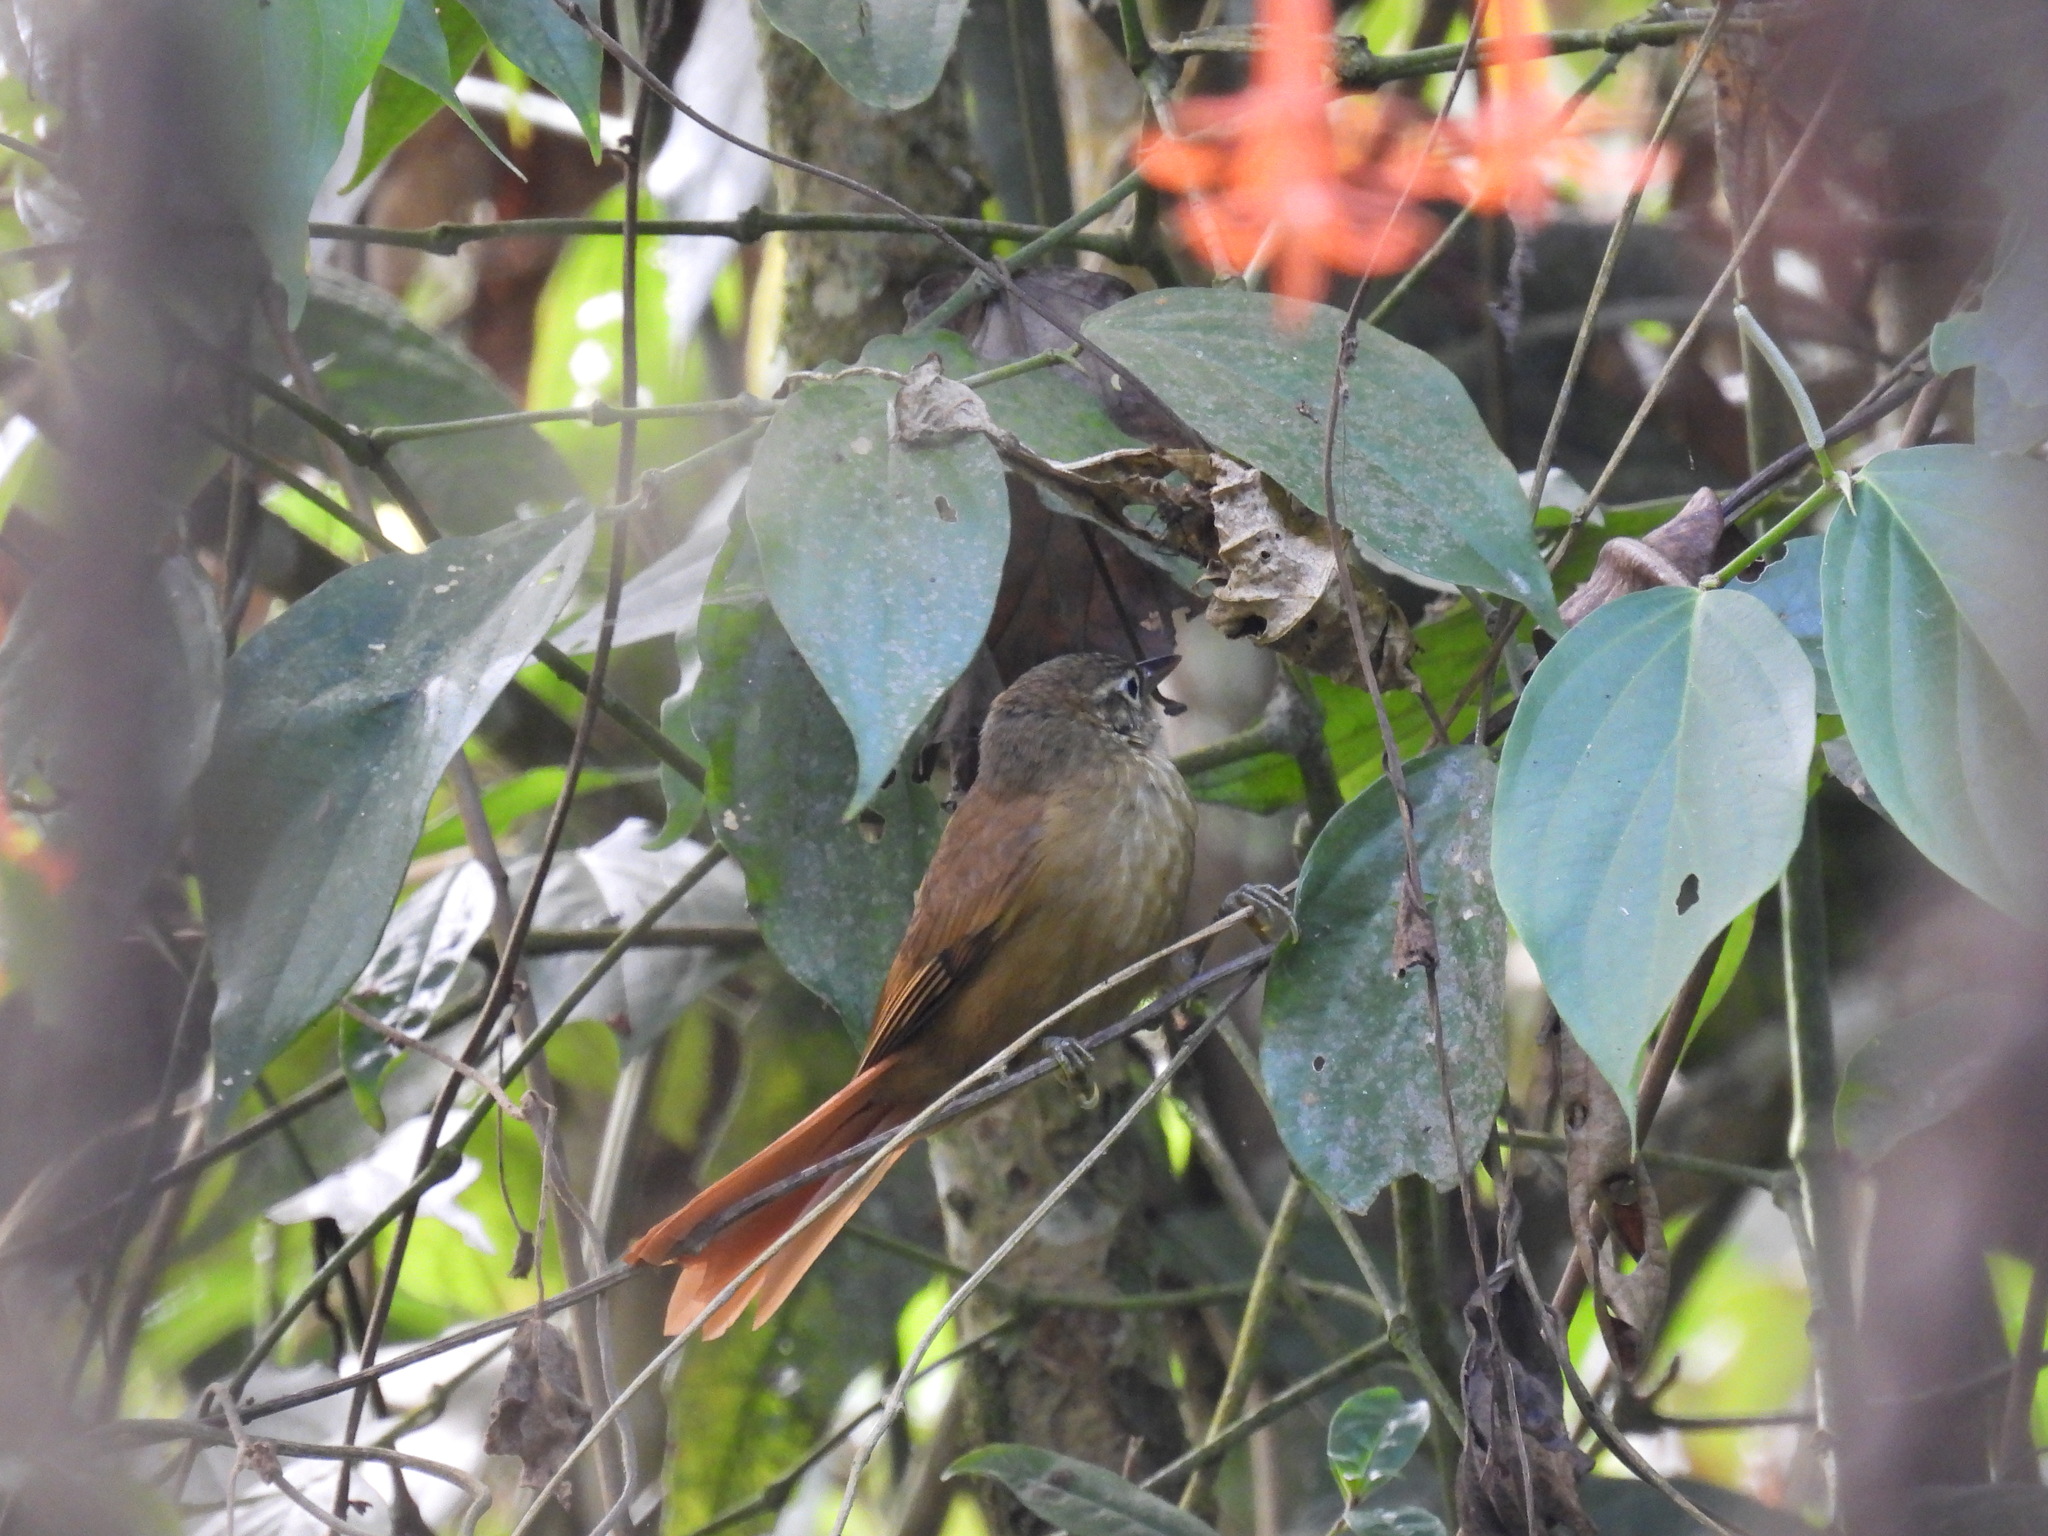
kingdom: Animalia
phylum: Chordata
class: Aves
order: Passeriformes
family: Furnariidae
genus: Anabacerthia
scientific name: Anabacerthia striaticollis
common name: Montane foliage-gleaner
